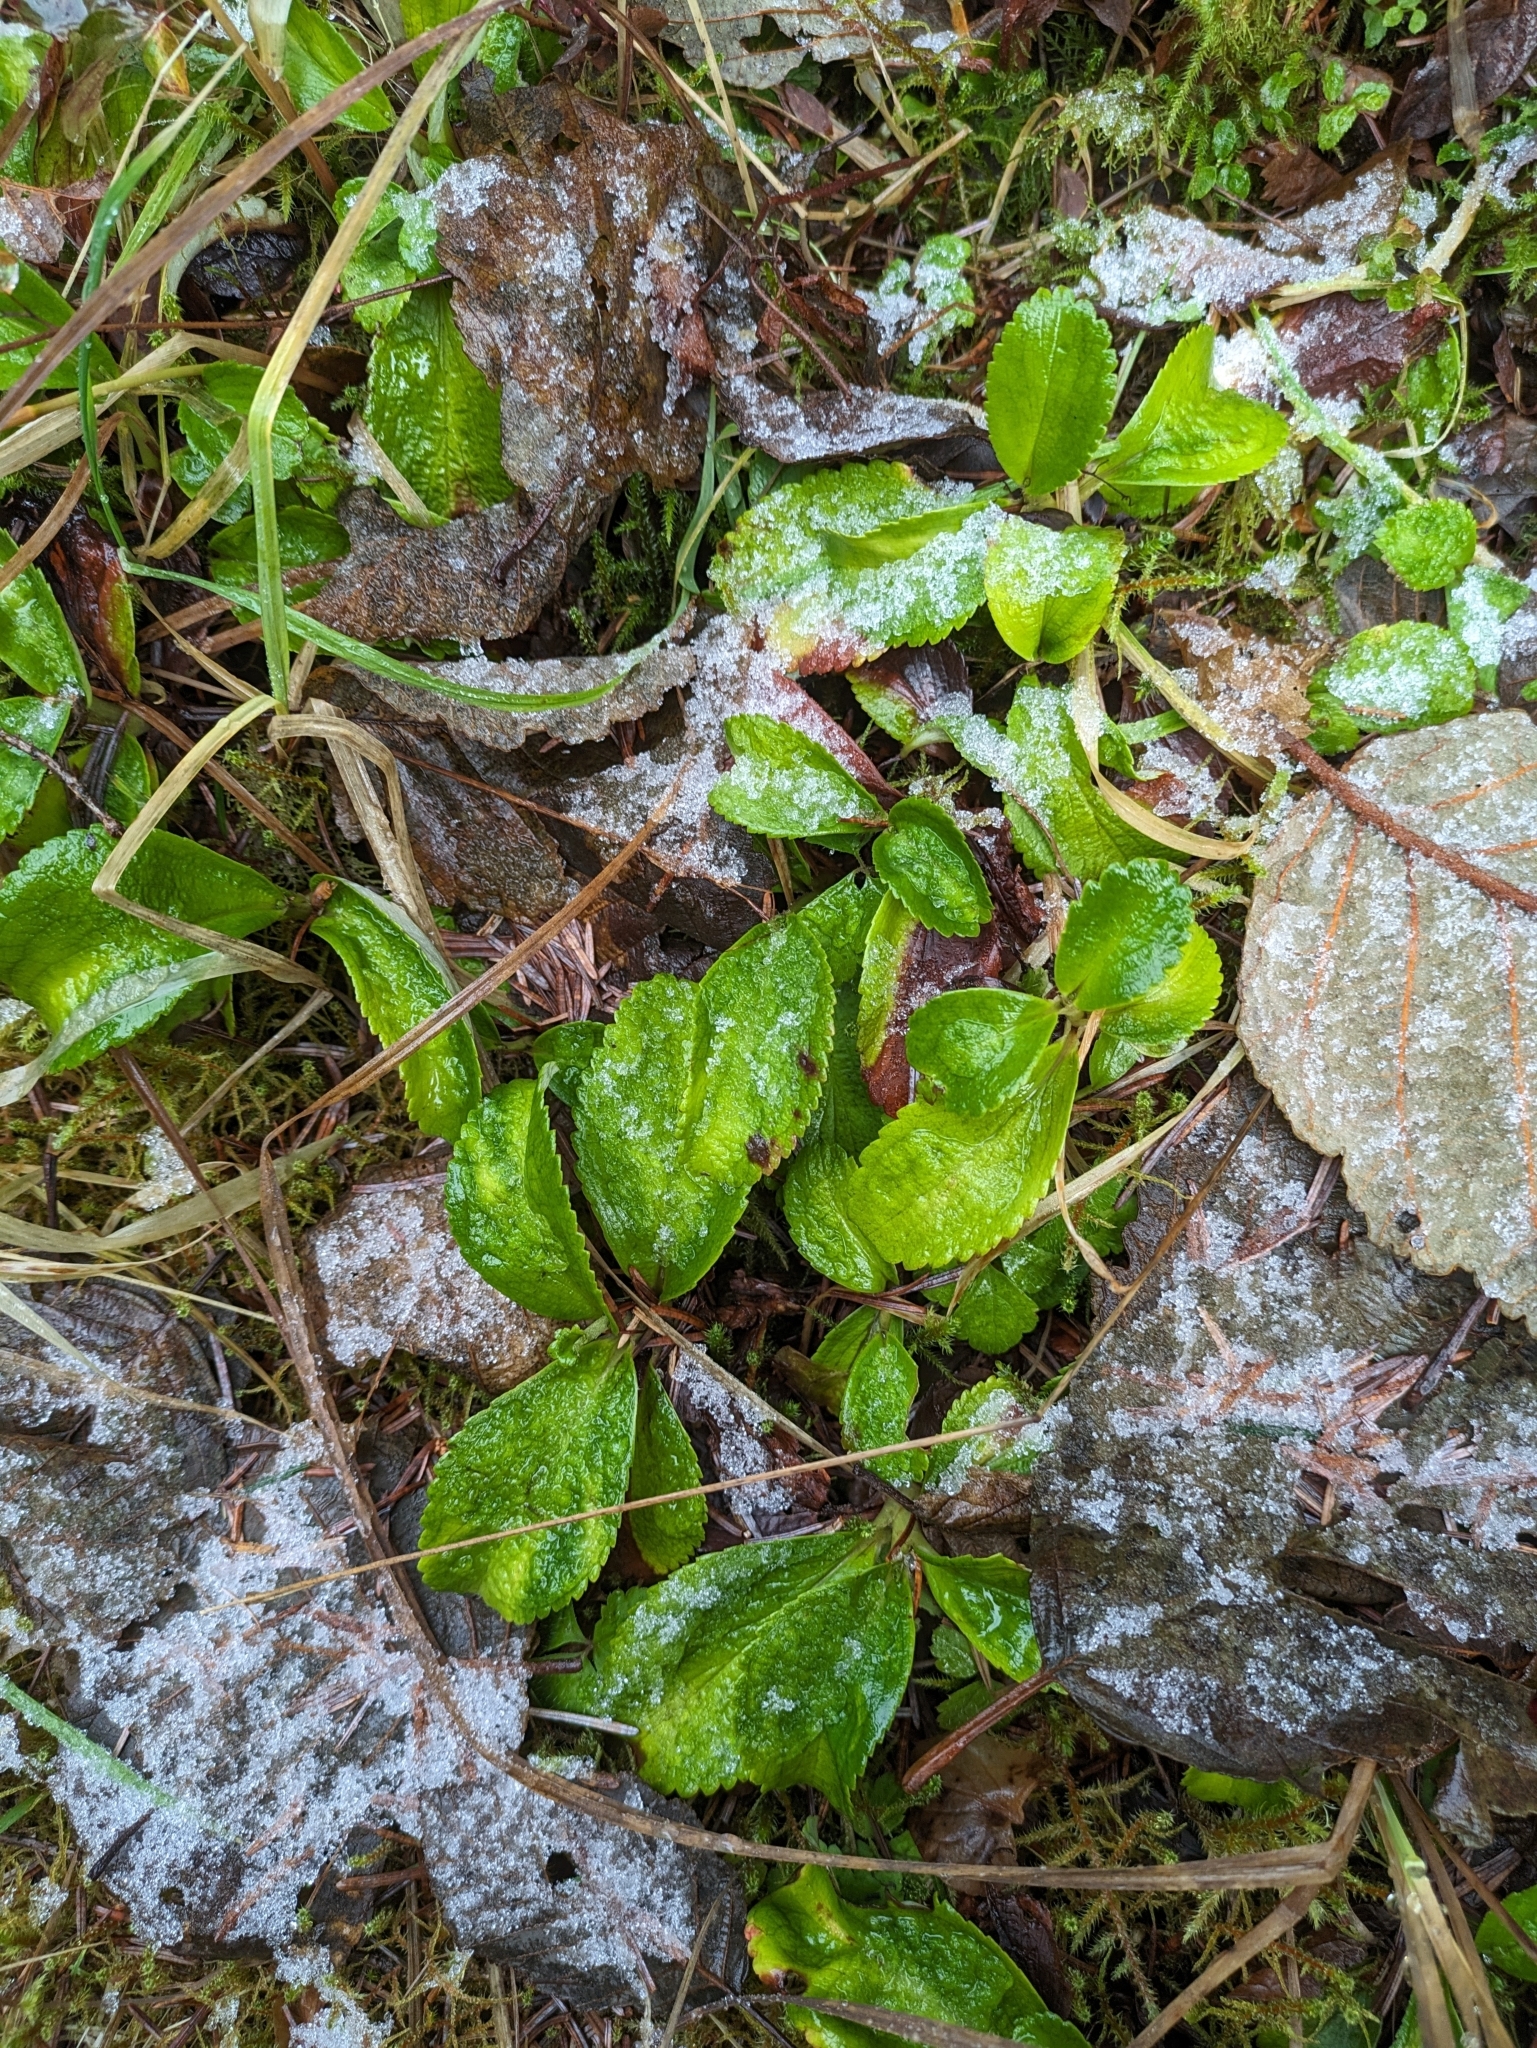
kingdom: Plantae
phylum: Tracheophyta
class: Magnoliopsida
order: Saxifragales
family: Saxifragaceae
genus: Leptarrhena
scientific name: Leptarrhena pyrolifolia
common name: Leatherleaf-saxifrage
